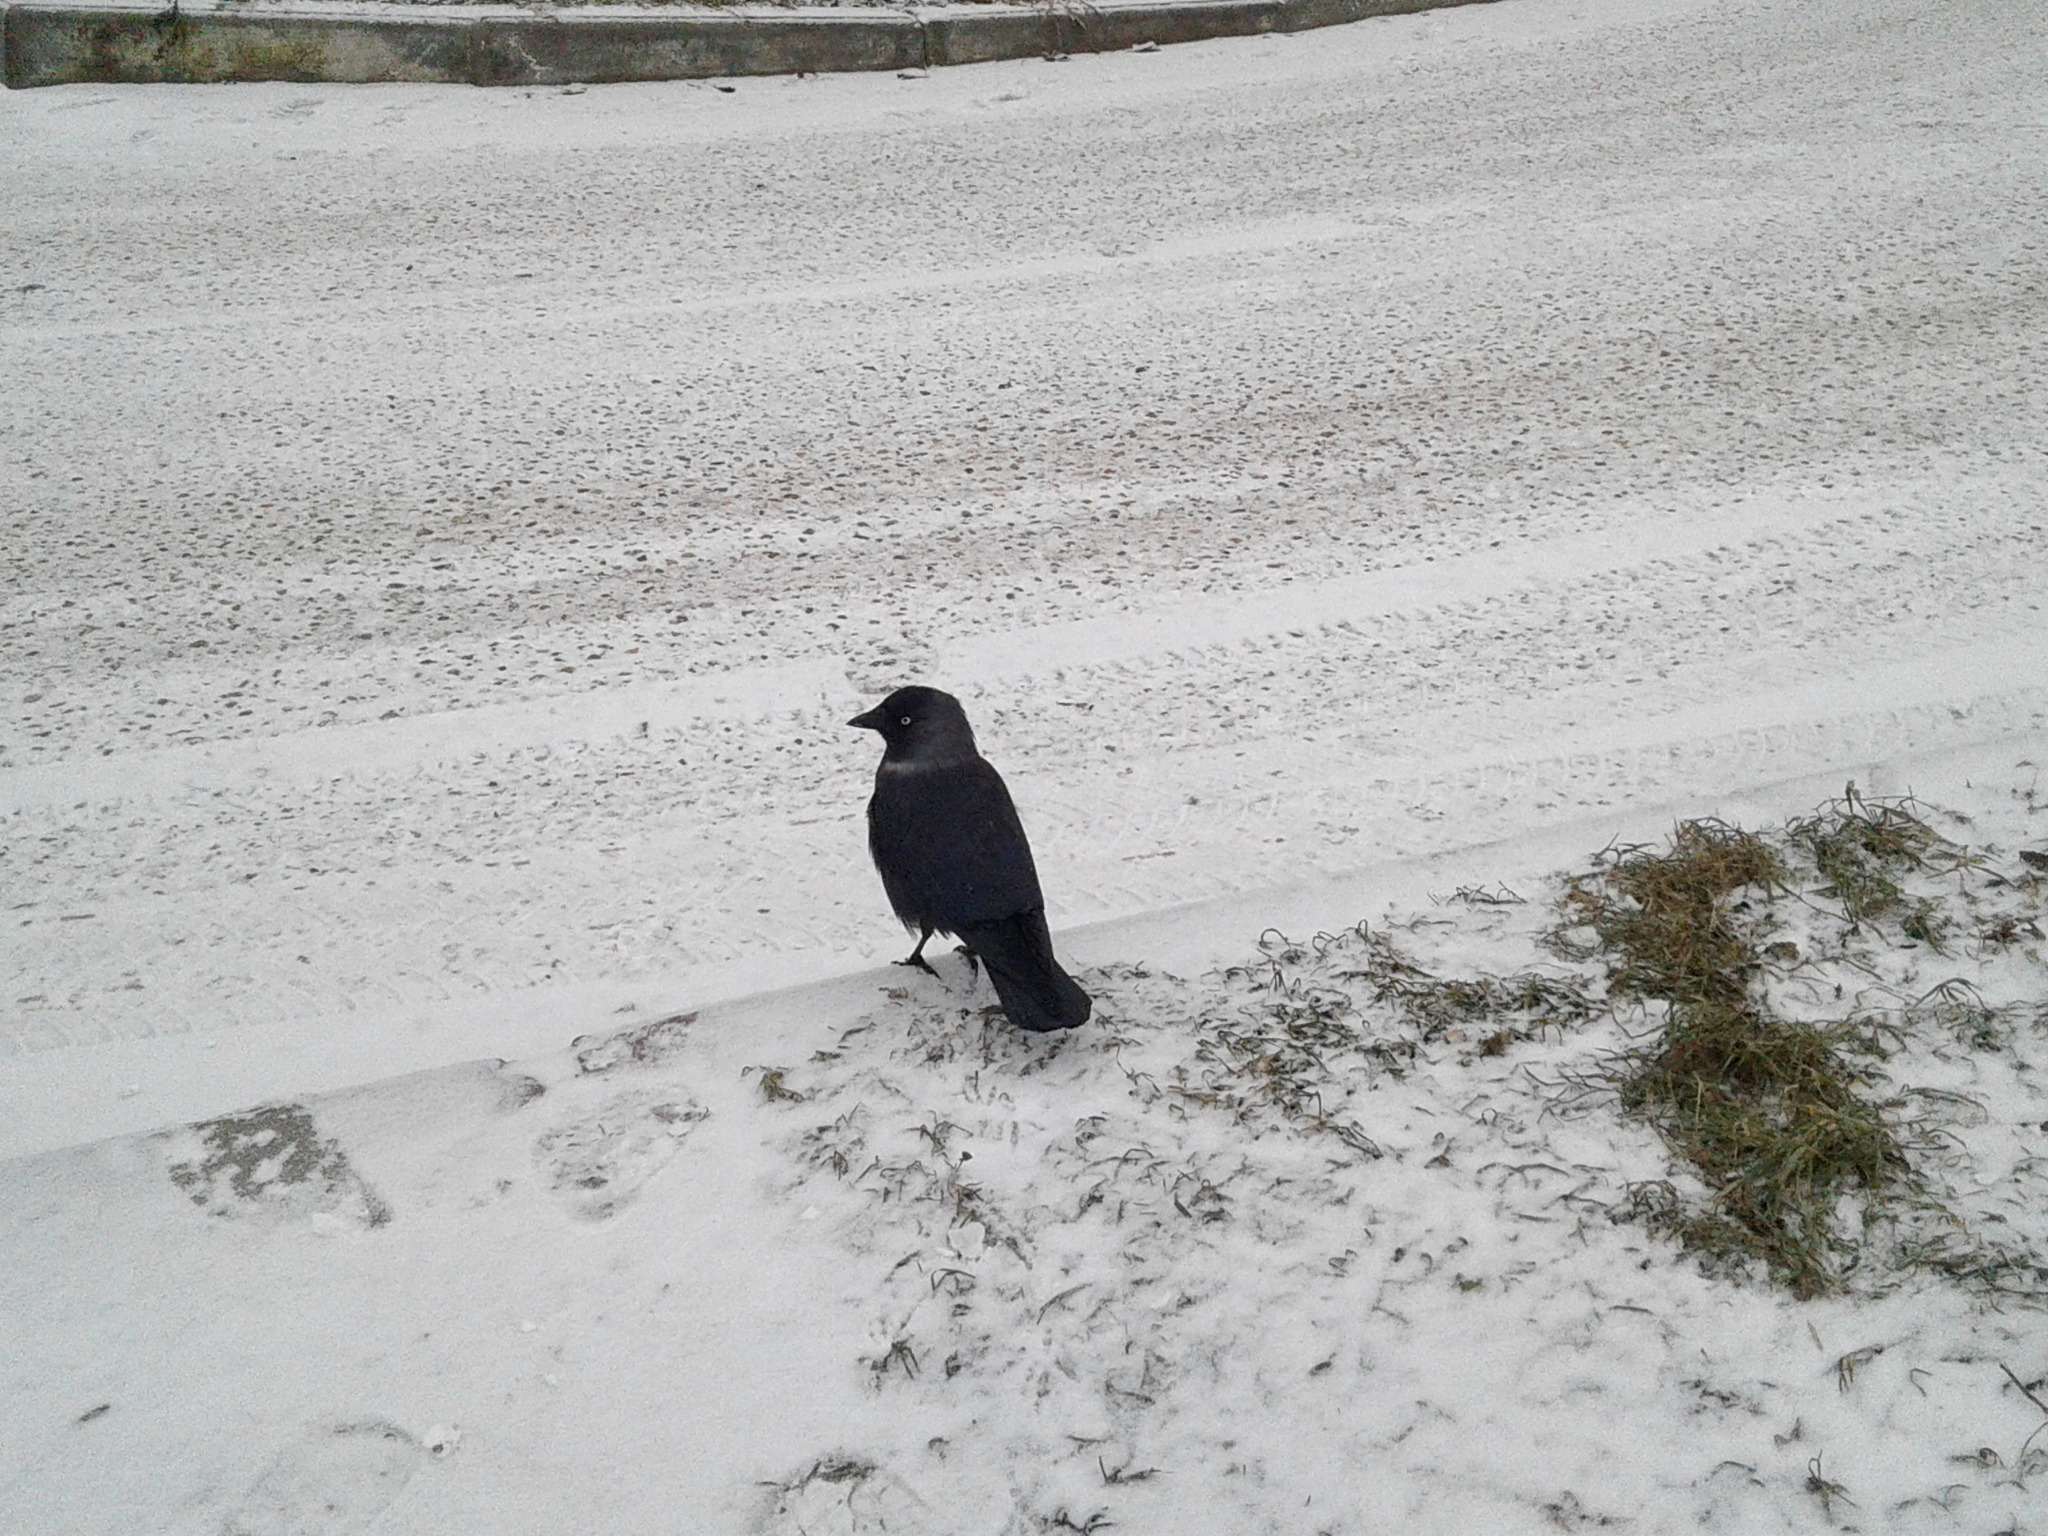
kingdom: Animalia
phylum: Chordata
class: Aves
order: Passeriformes
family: Corvidae
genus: Coloeus
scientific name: Coloeus monedula
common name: Western jackdaw
